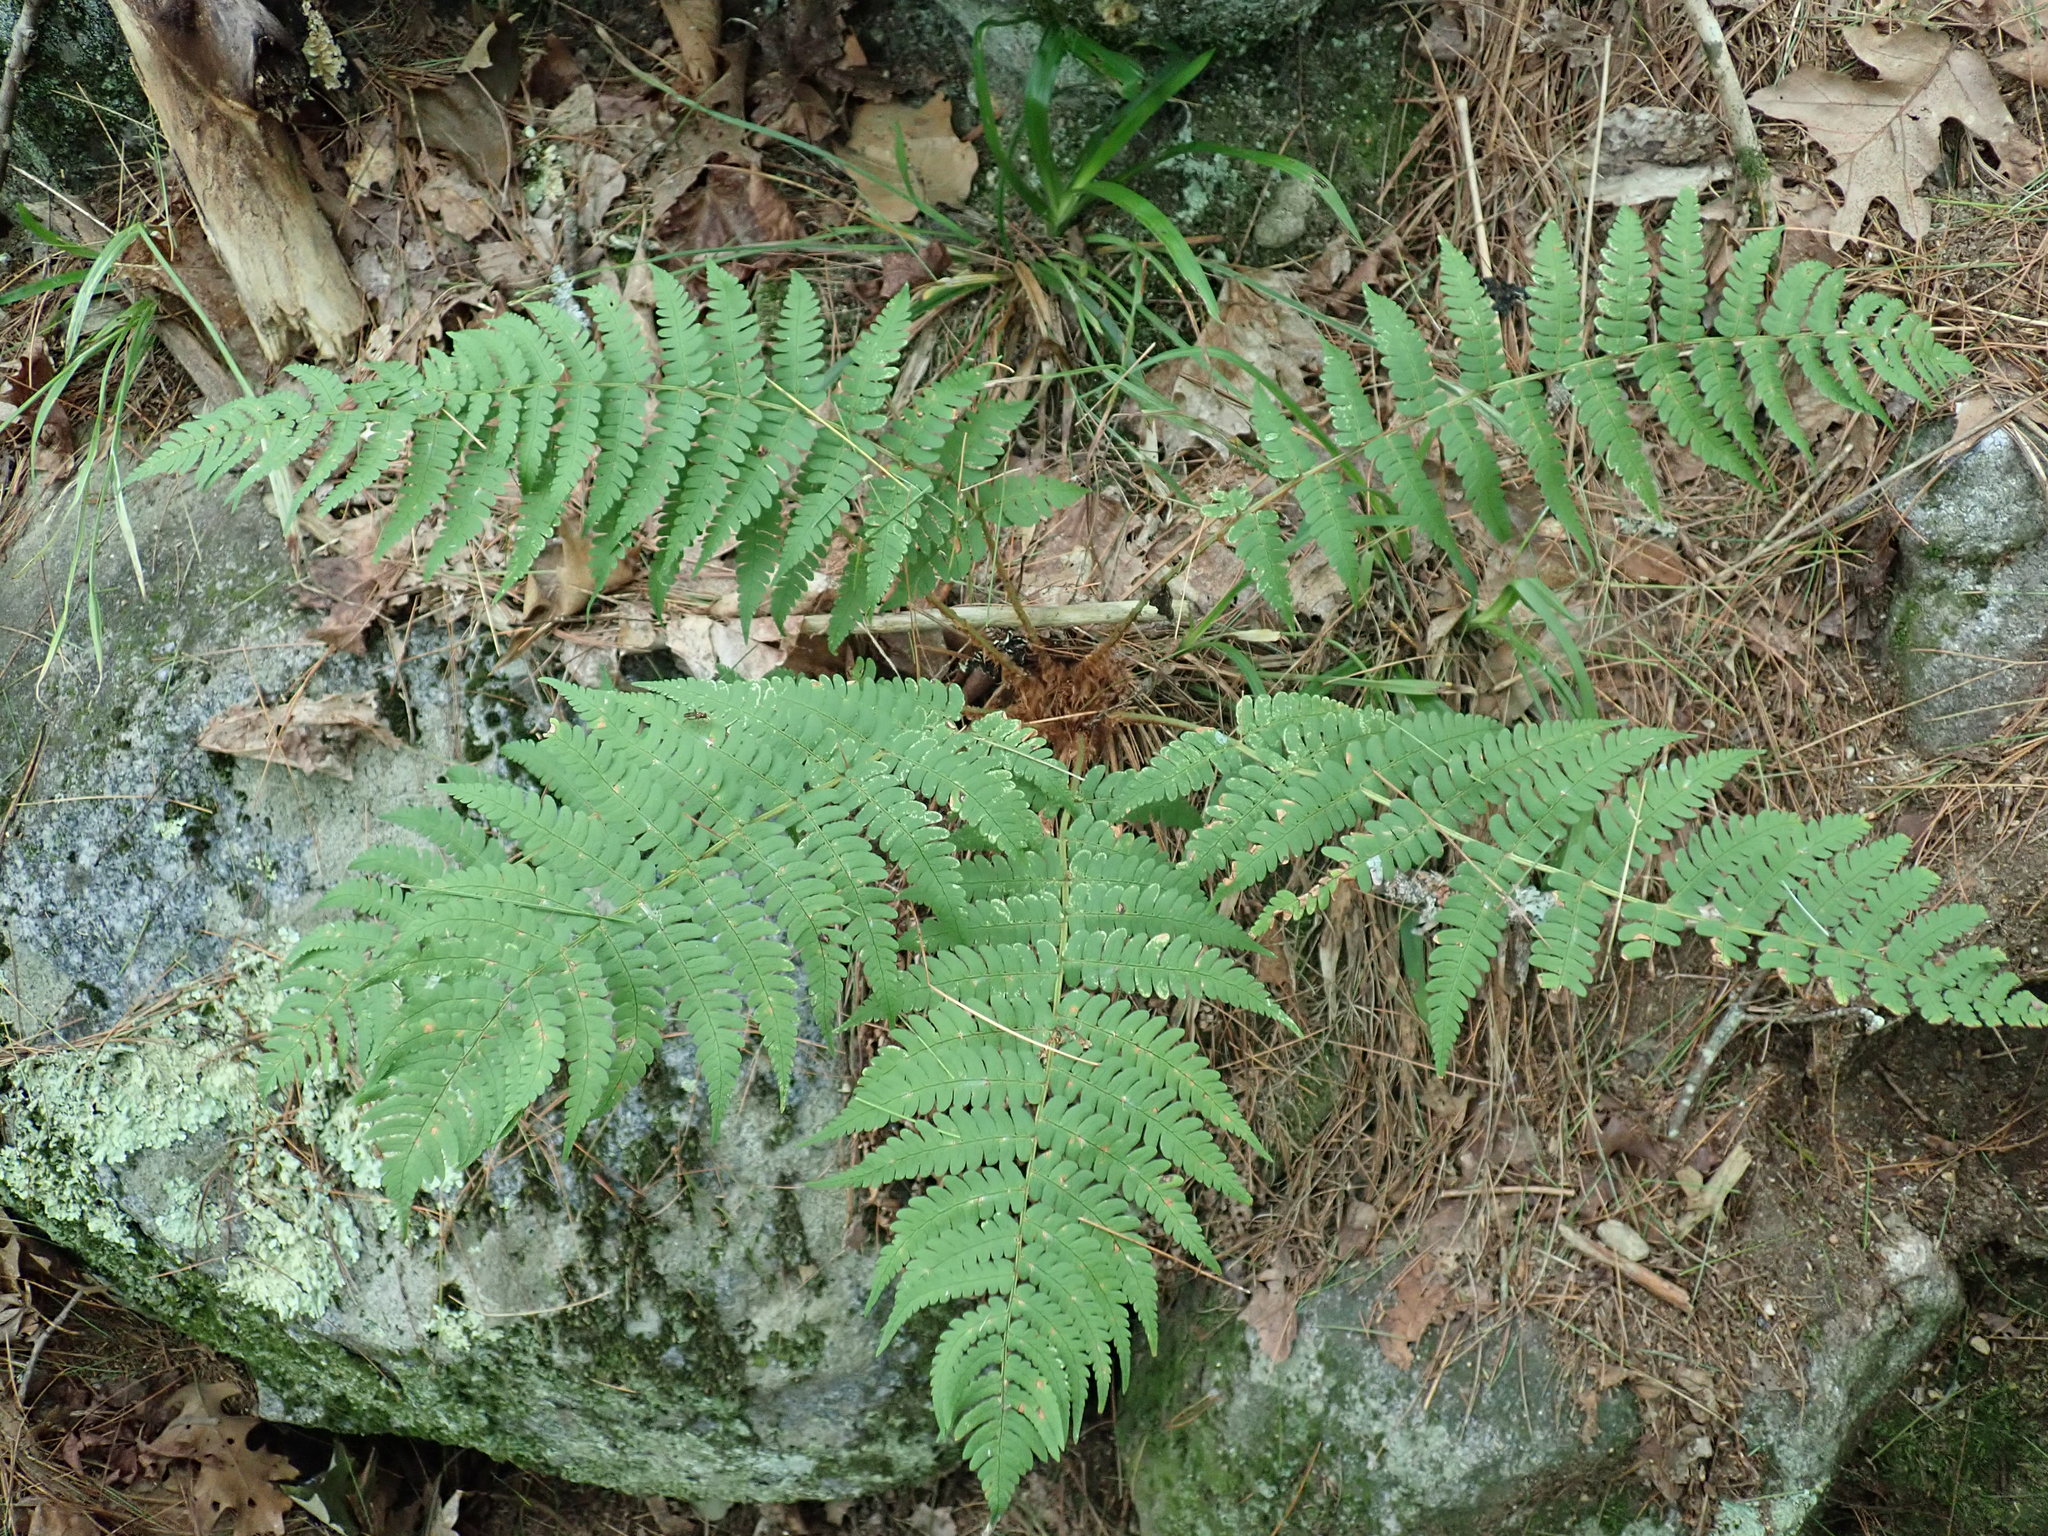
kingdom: Plantae
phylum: Tracheophyta
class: Polypodiopsida
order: Polypodiales
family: Dryopteridaceae
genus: Dryopteris
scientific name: Dryopteris marginalis
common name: Marginal wood fern
